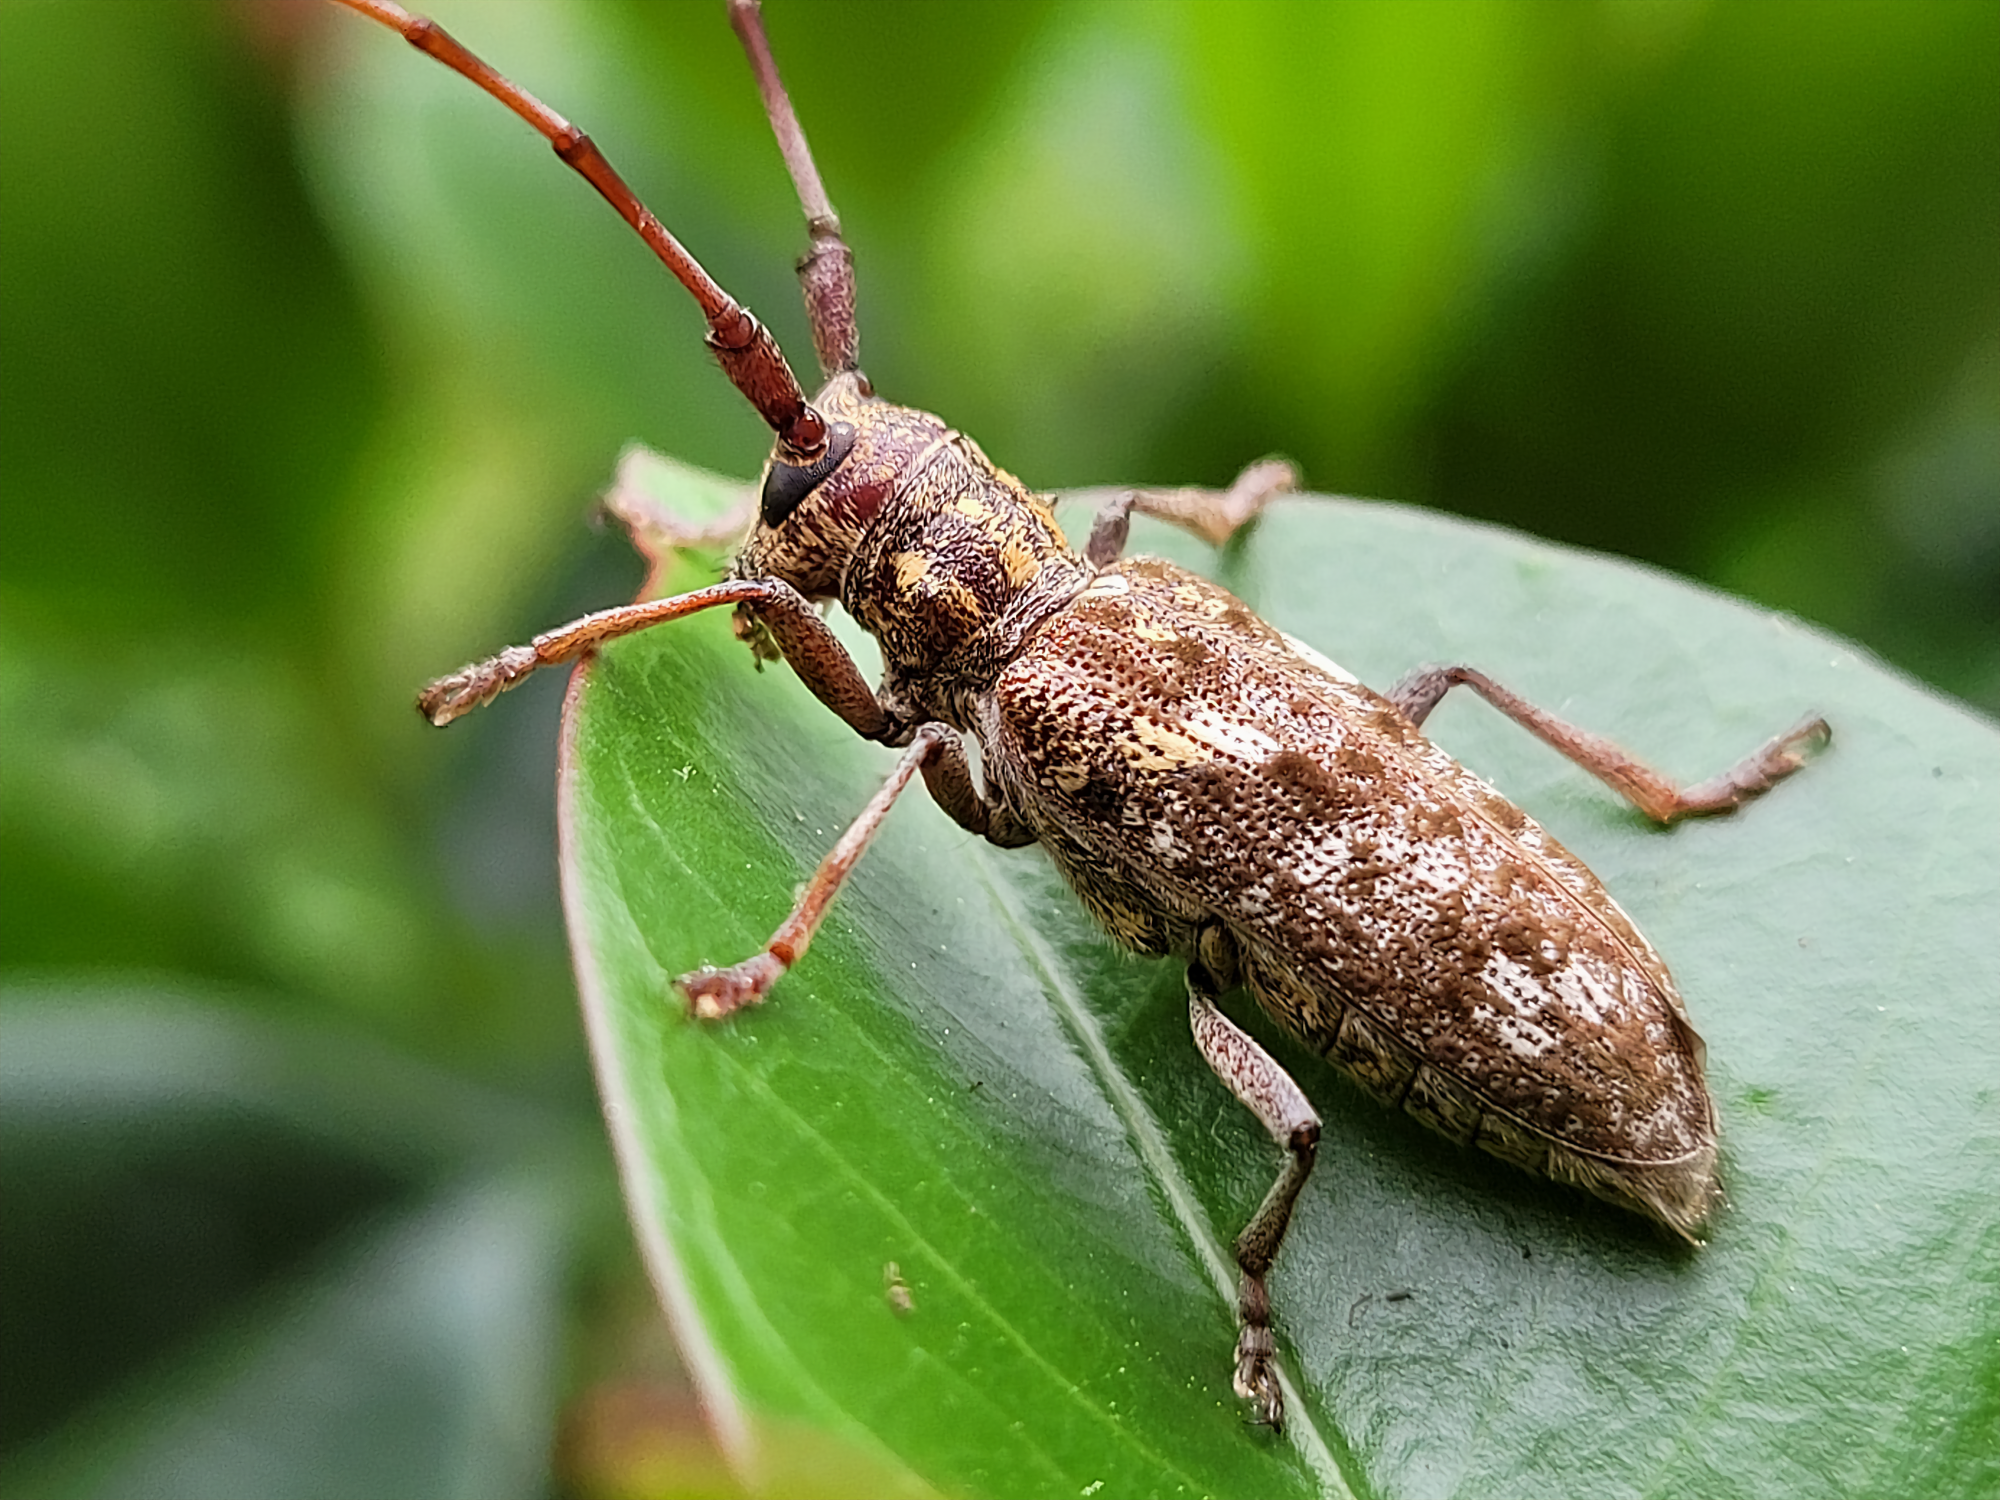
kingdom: Animalia
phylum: Arthropoda
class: Insecta
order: Coleoptera
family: Cerambycidae
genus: Monochamus
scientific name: Monochamus carolinensis
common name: Carolina pine sawyer
